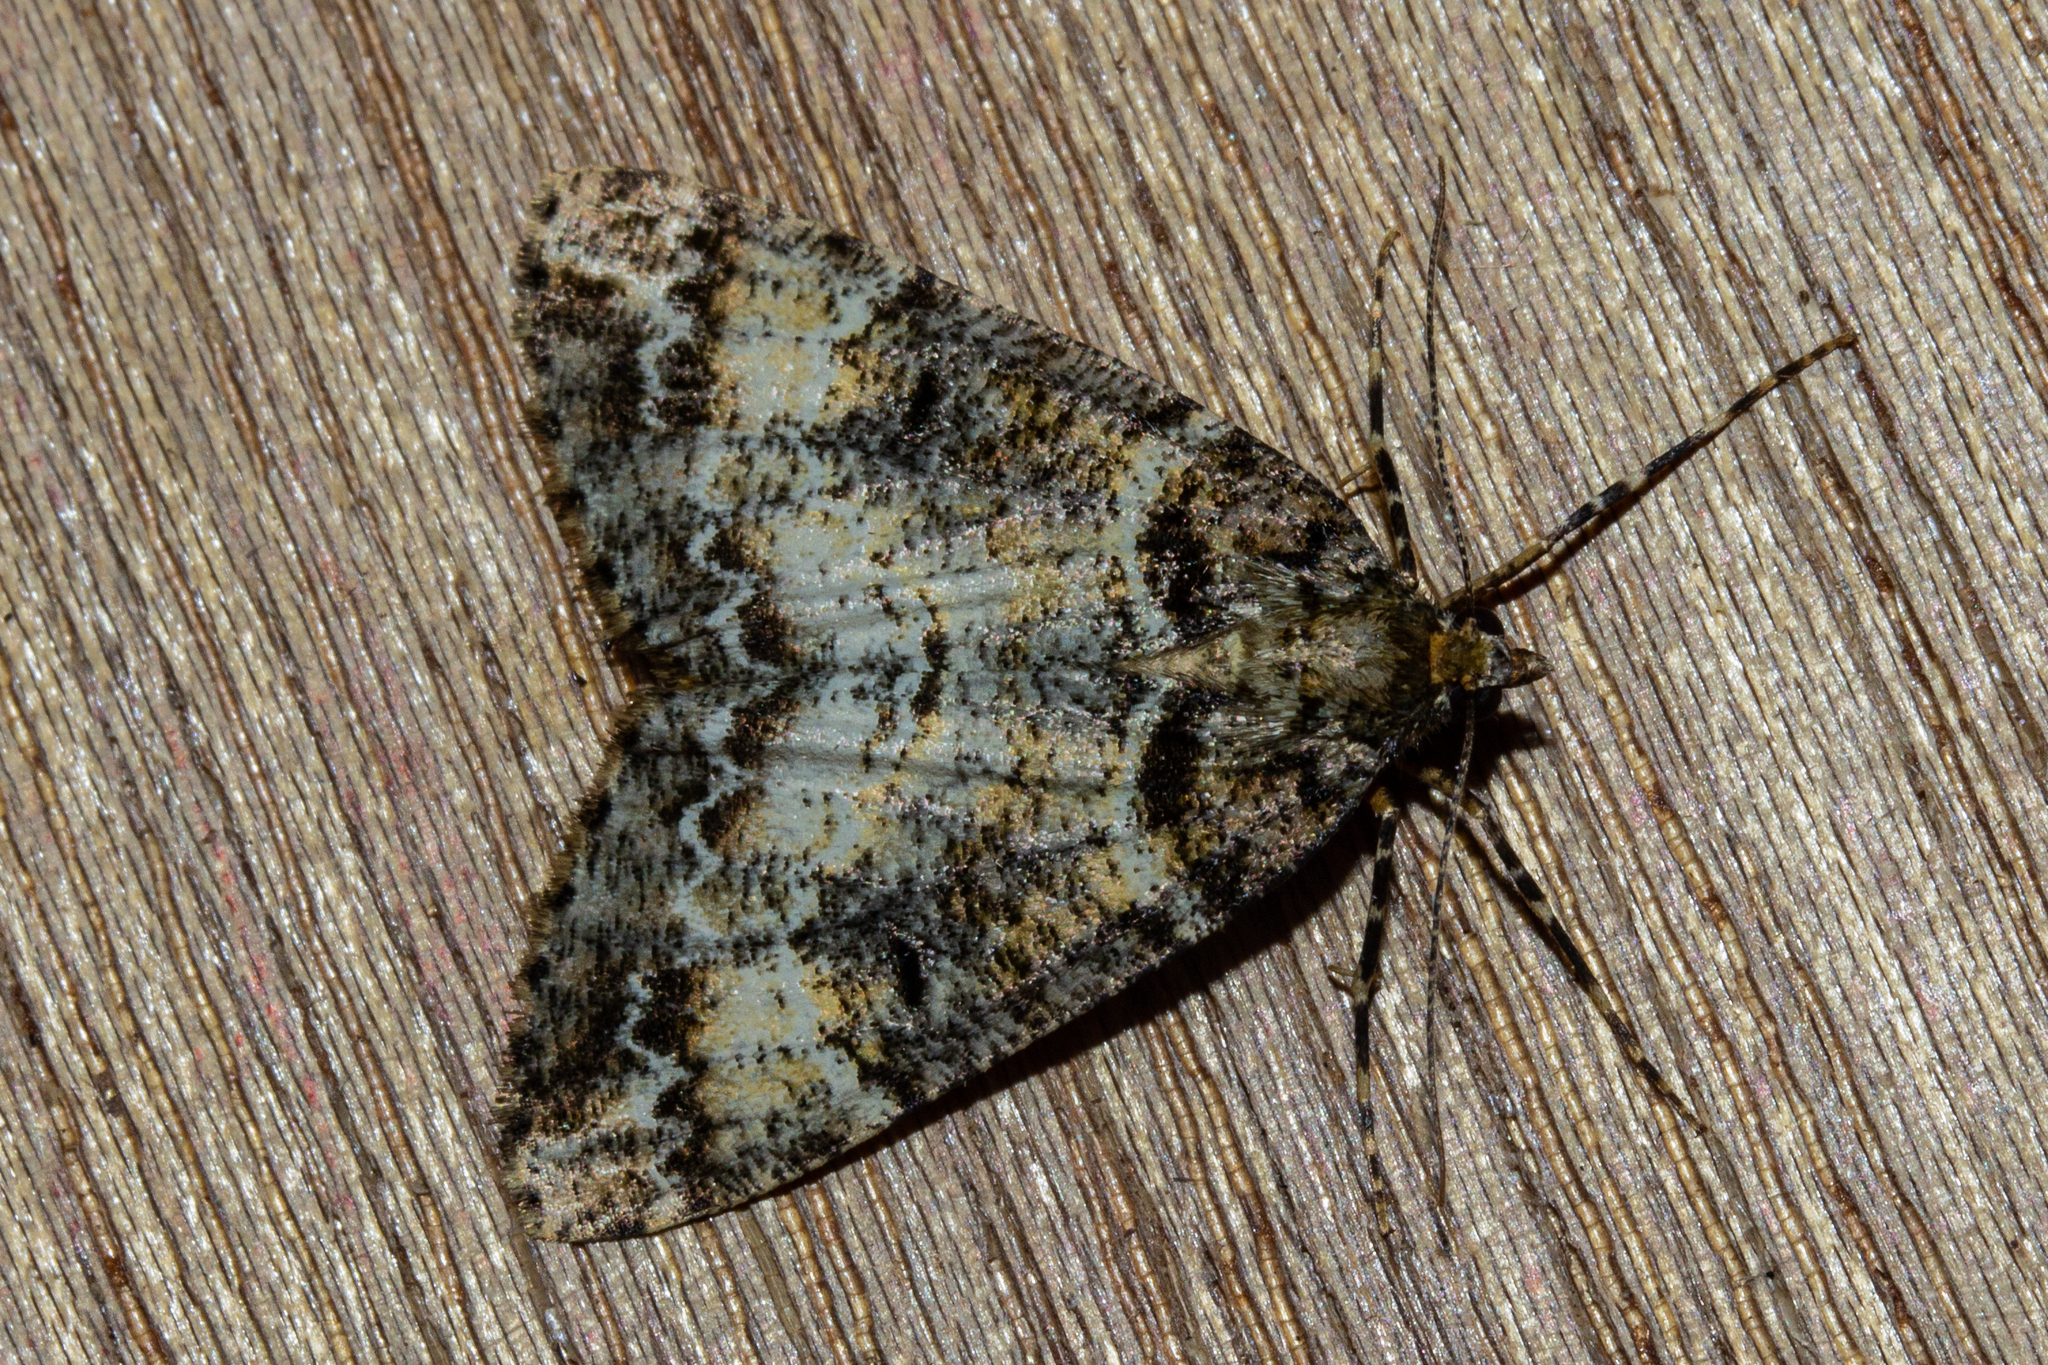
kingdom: Animalia
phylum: Arthropoda
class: Insecta
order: Lepidoptera
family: Geometridae
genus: Pseudocoremia
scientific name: Pseudocoremia productata
